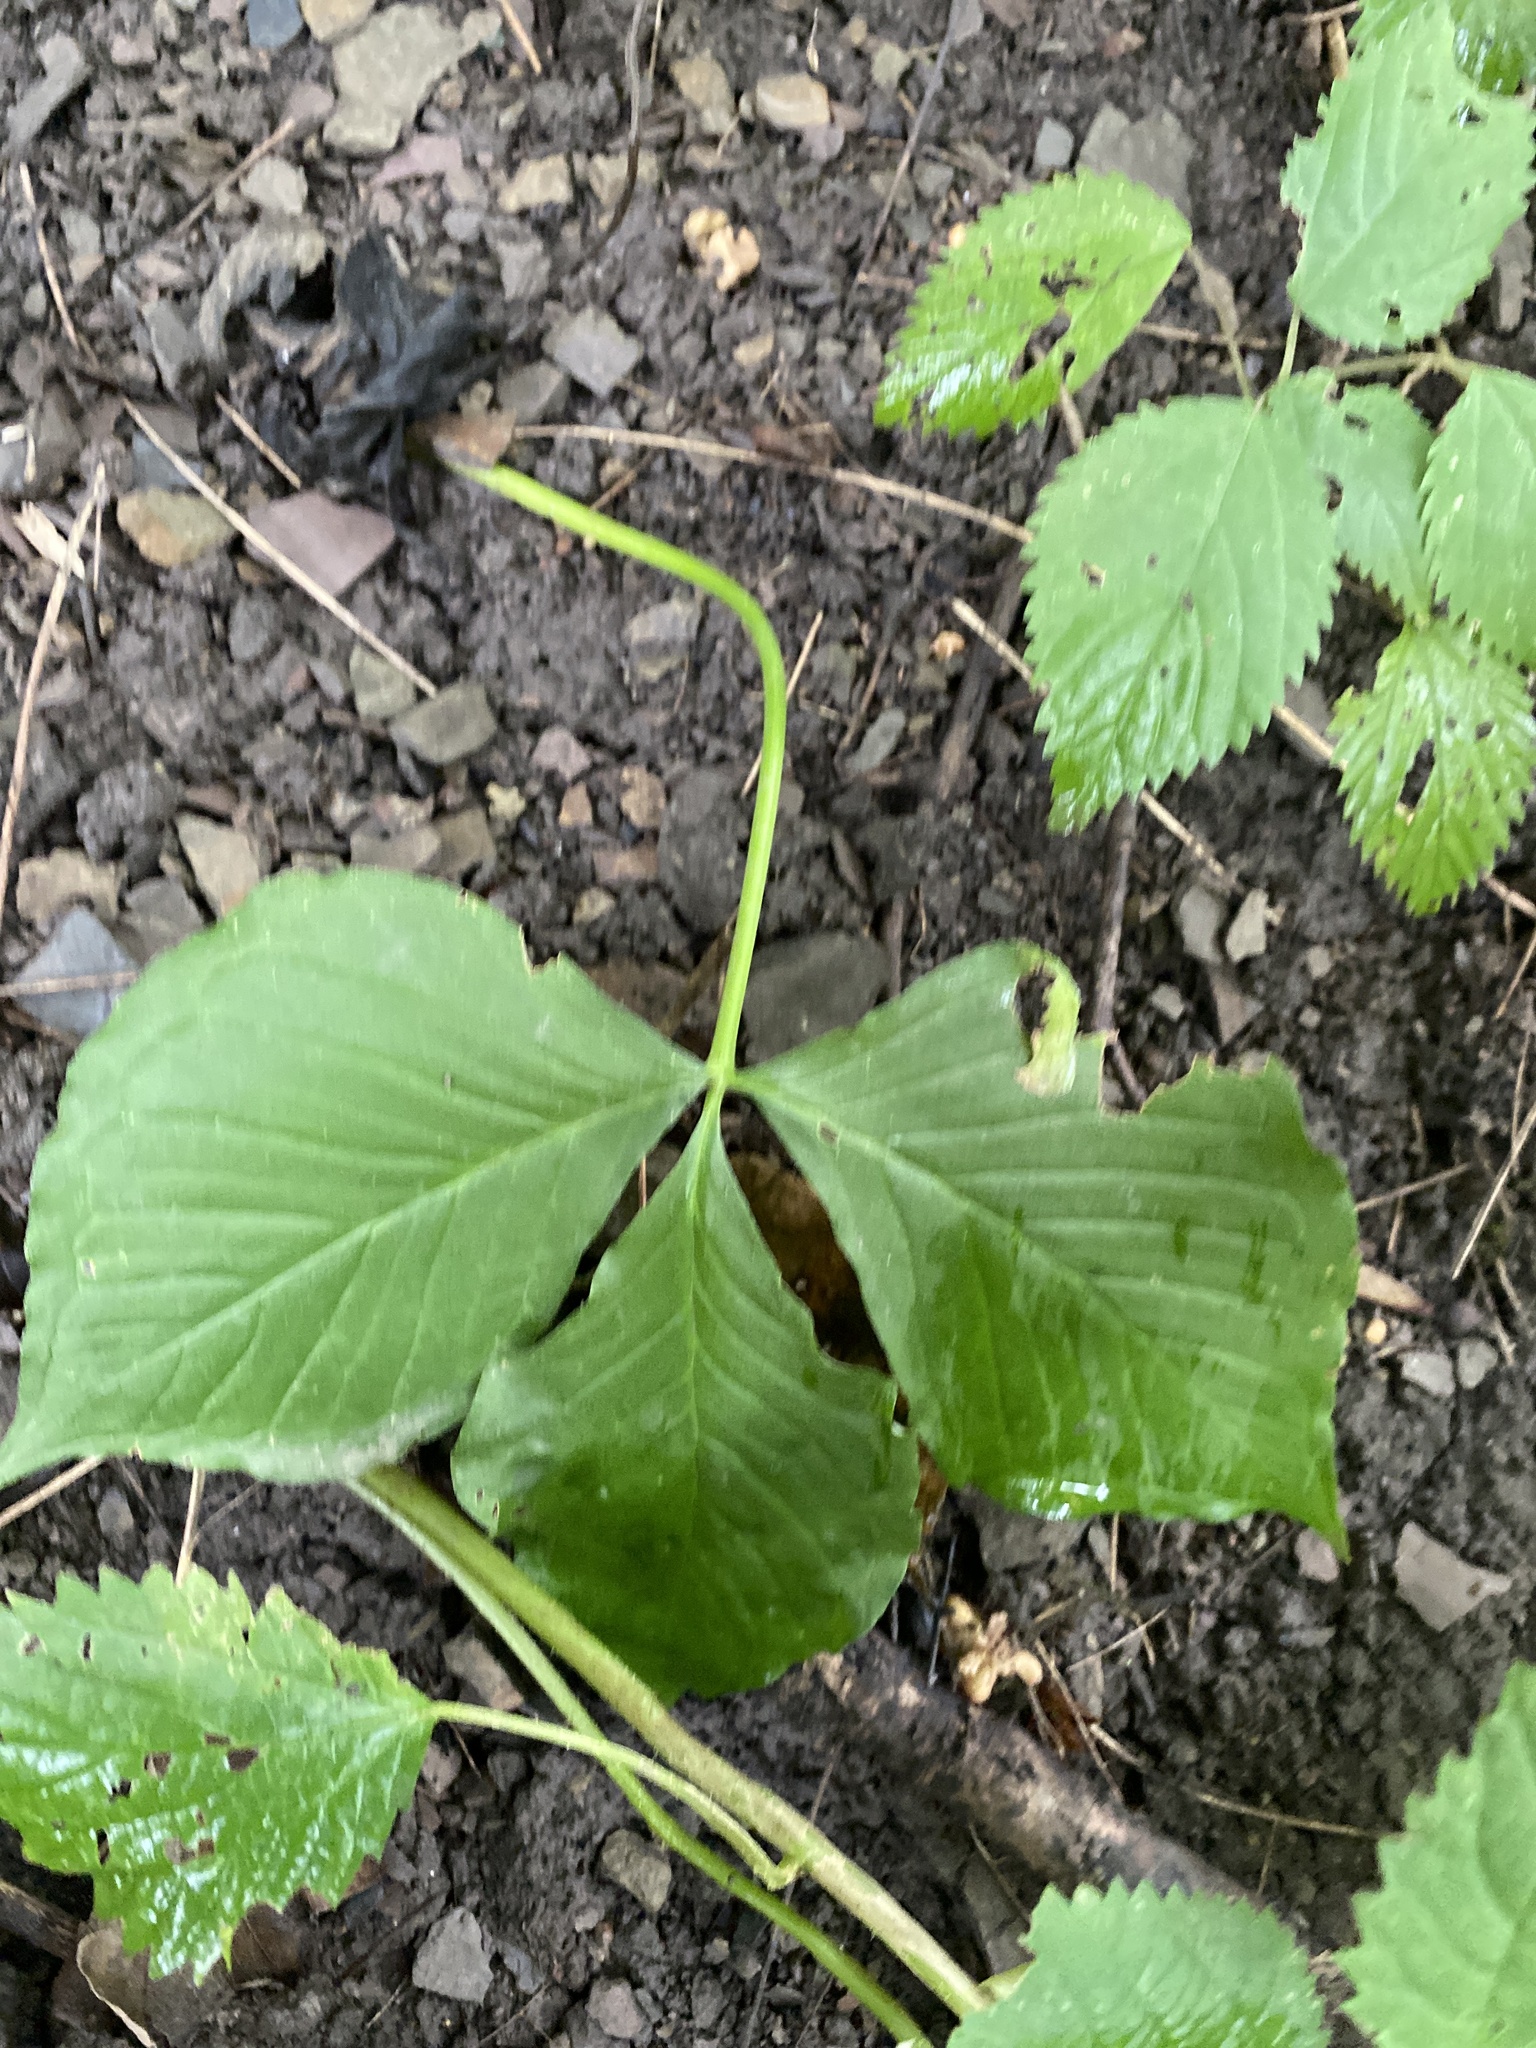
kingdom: Plantae
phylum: Tracheophyta
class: Liliopsida
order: Alismatales
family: Araceae
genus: Arisaema
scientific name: Arisaema triphyllum
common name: Jack-in-the-pulpit
